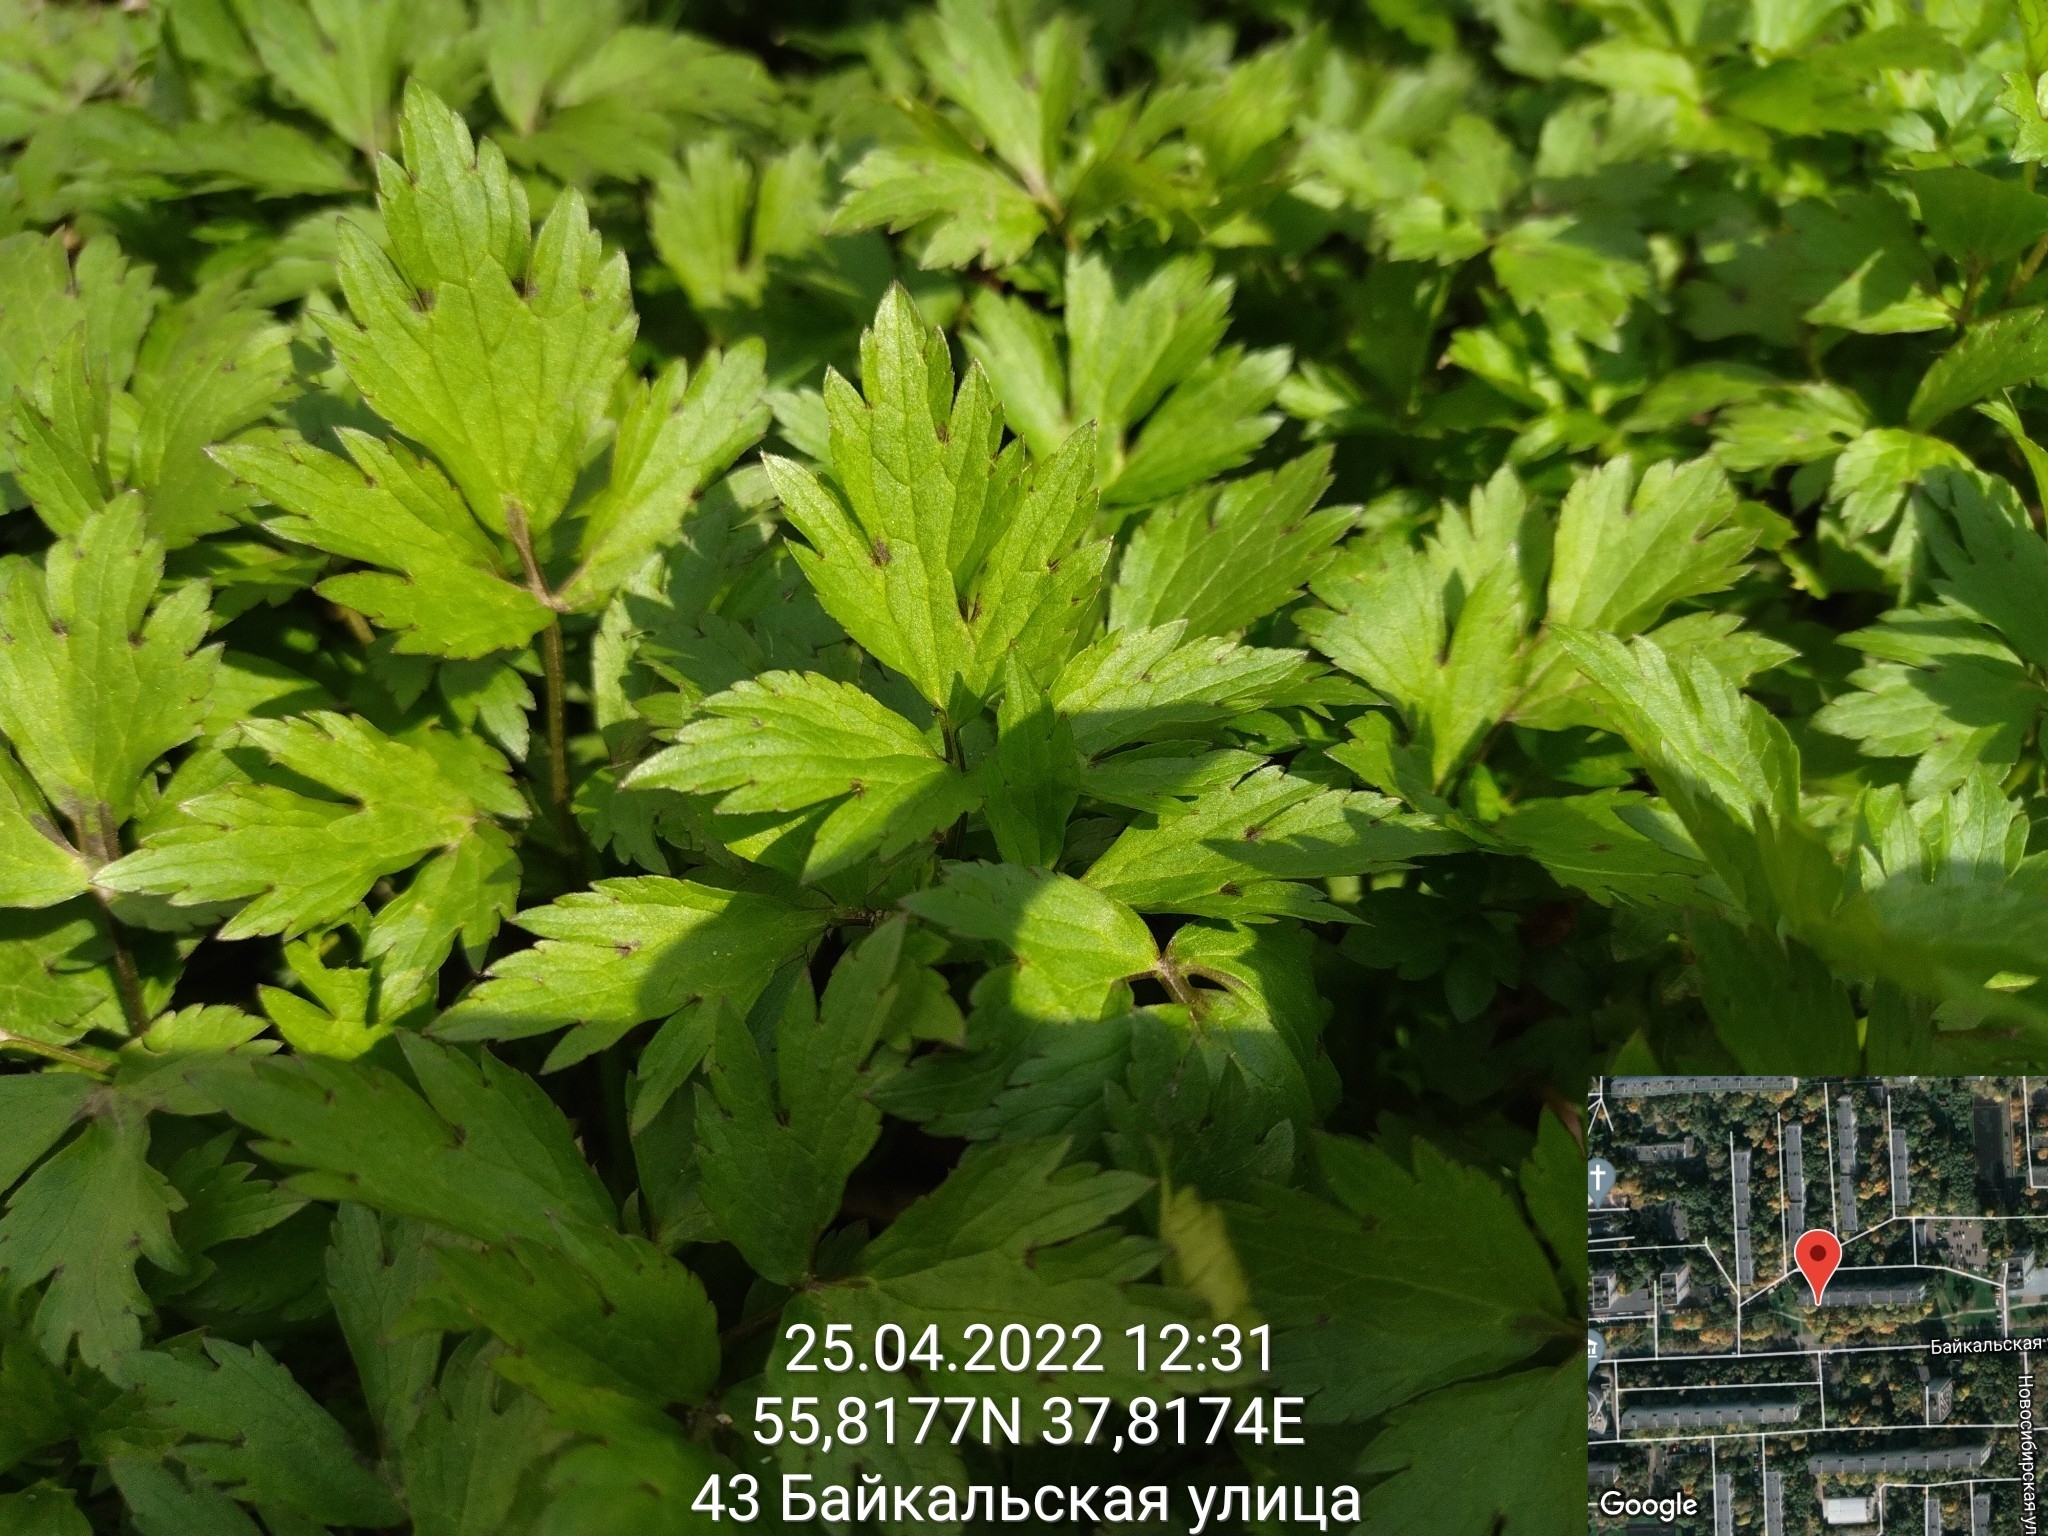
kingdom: Plantae
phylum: Tracheophyta
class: Magnoliopsida
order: Ranunculales
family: Ranunculaceae
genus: Ranunculus
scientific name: Ranunculus repens
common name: Creeping buttercup
